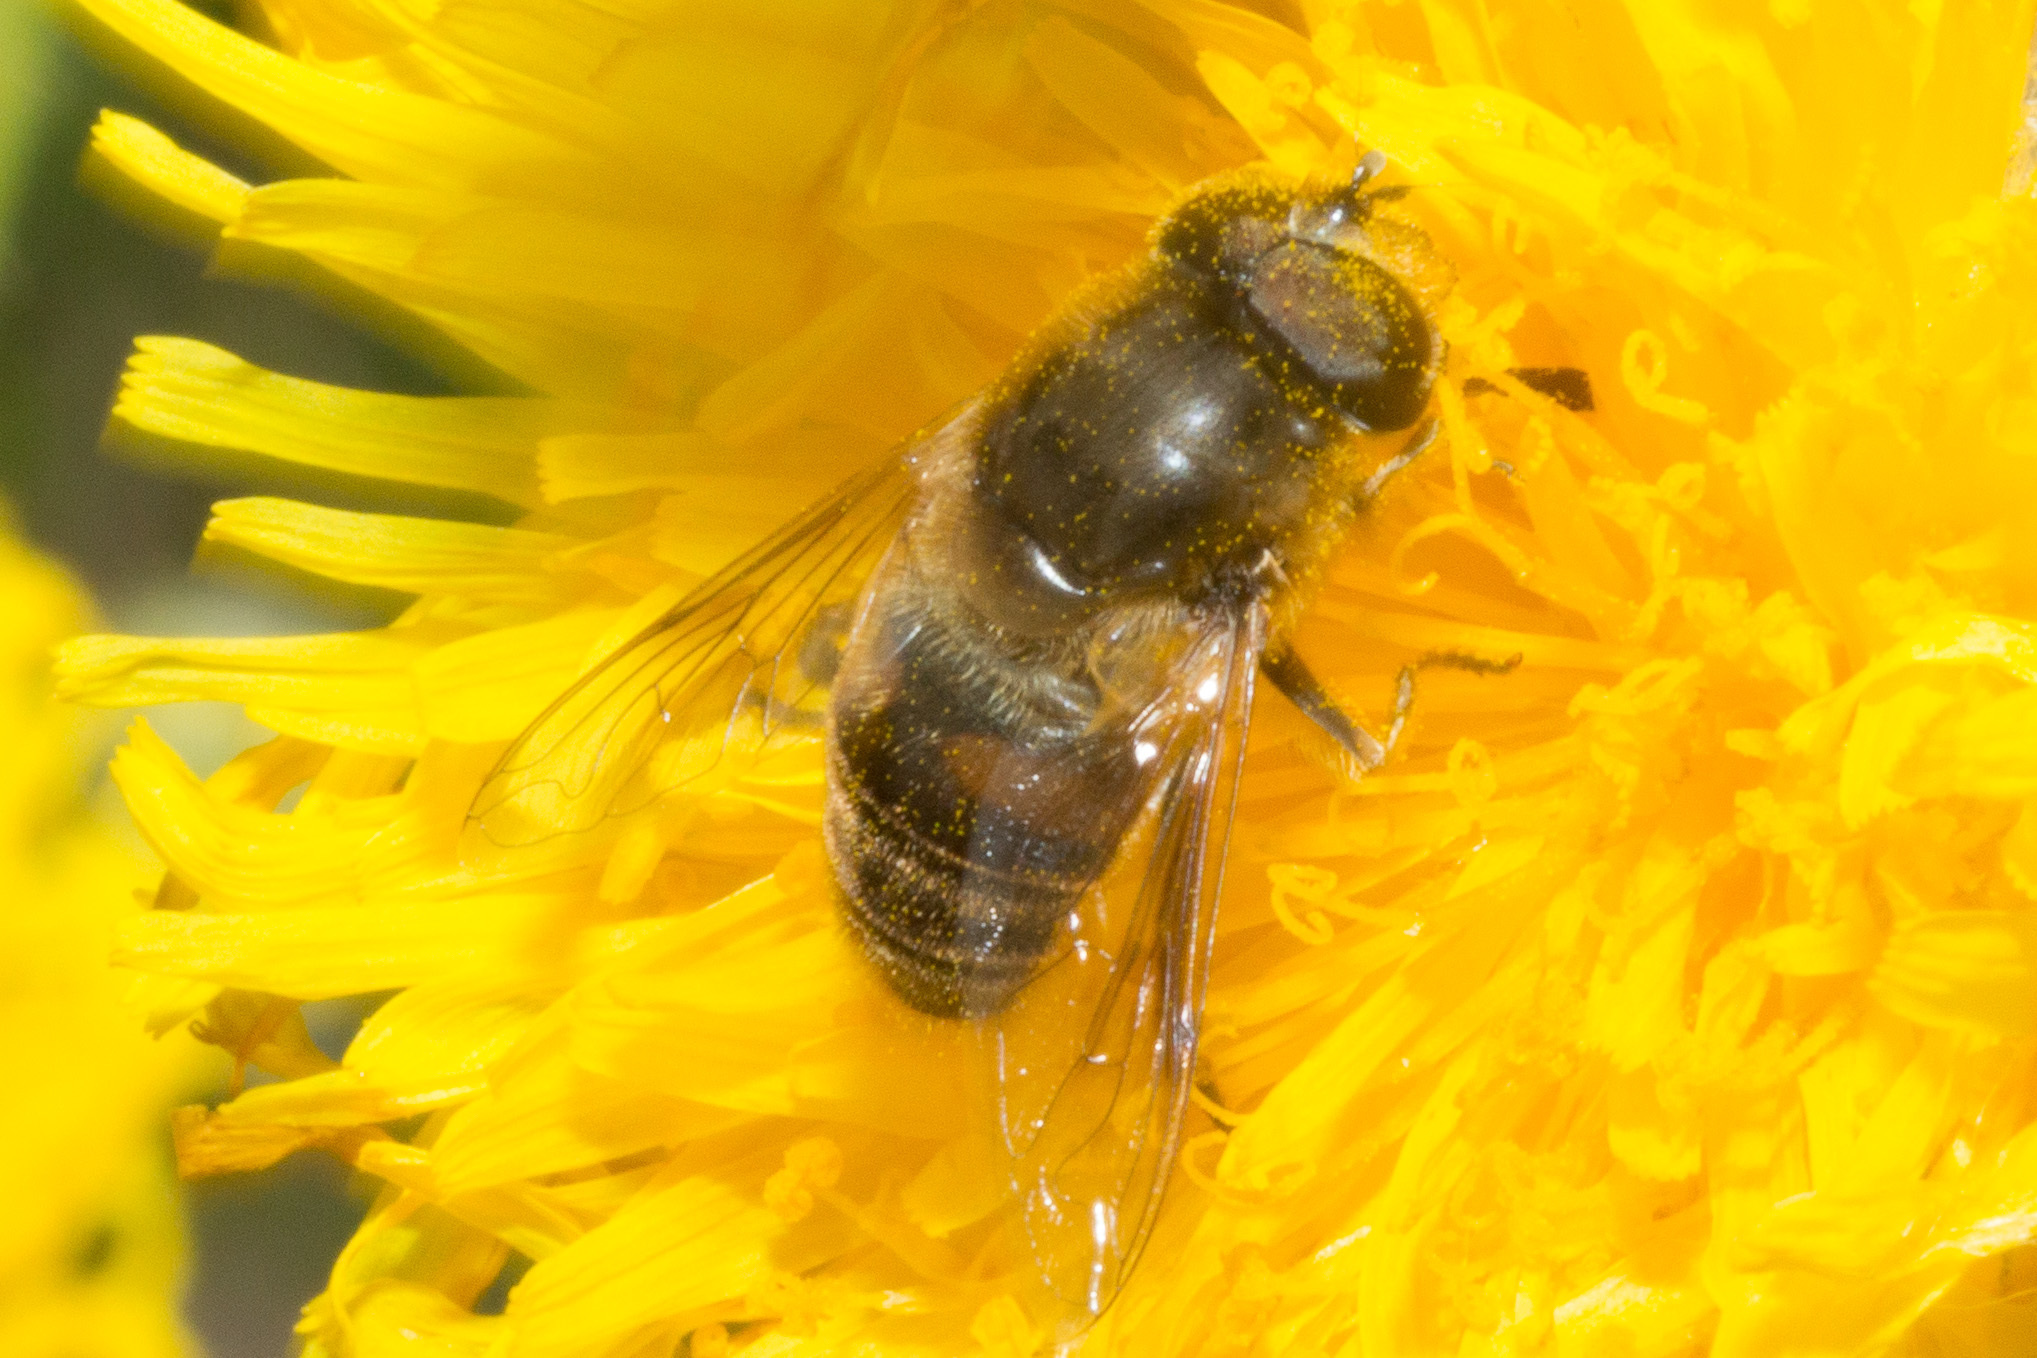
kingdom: Animalia
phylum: Arthropoda
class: Insecta
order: Diptera
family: Syrphidae
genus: Eristalis
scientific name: Eristalis tenax
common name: Drone fly
